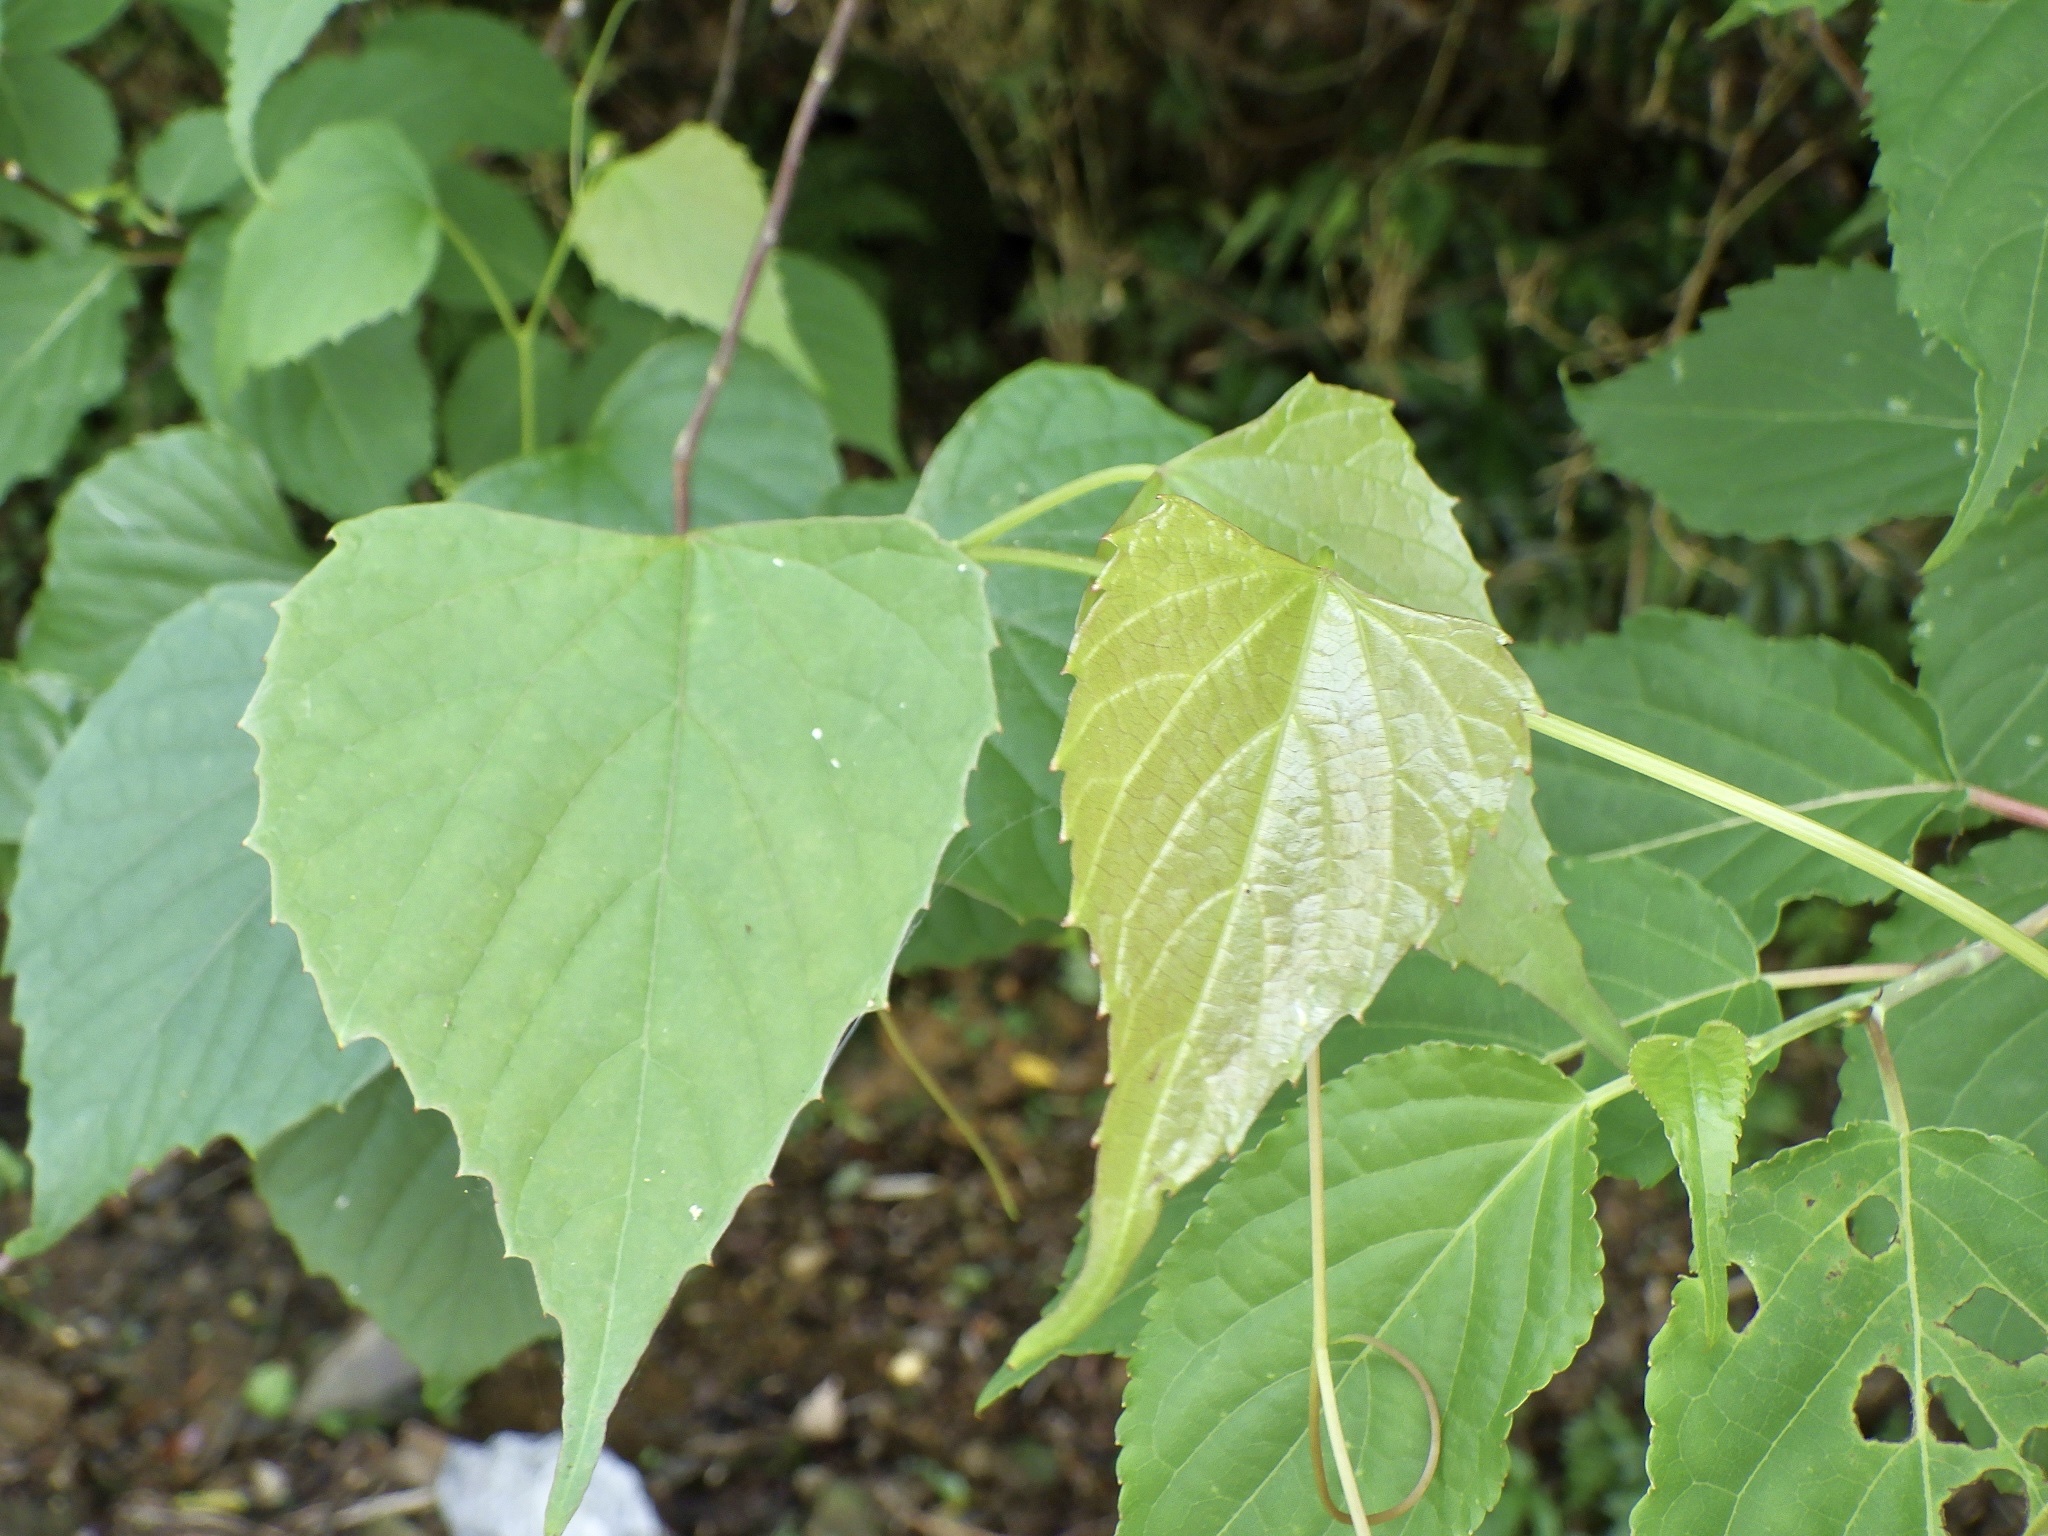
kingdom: Plantae
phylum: Tracheophyta
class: Magnoliopsida
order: Vitales
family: Vitaceae
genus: Vitis
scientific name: Vitis flexuosa
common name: Creeping grape
